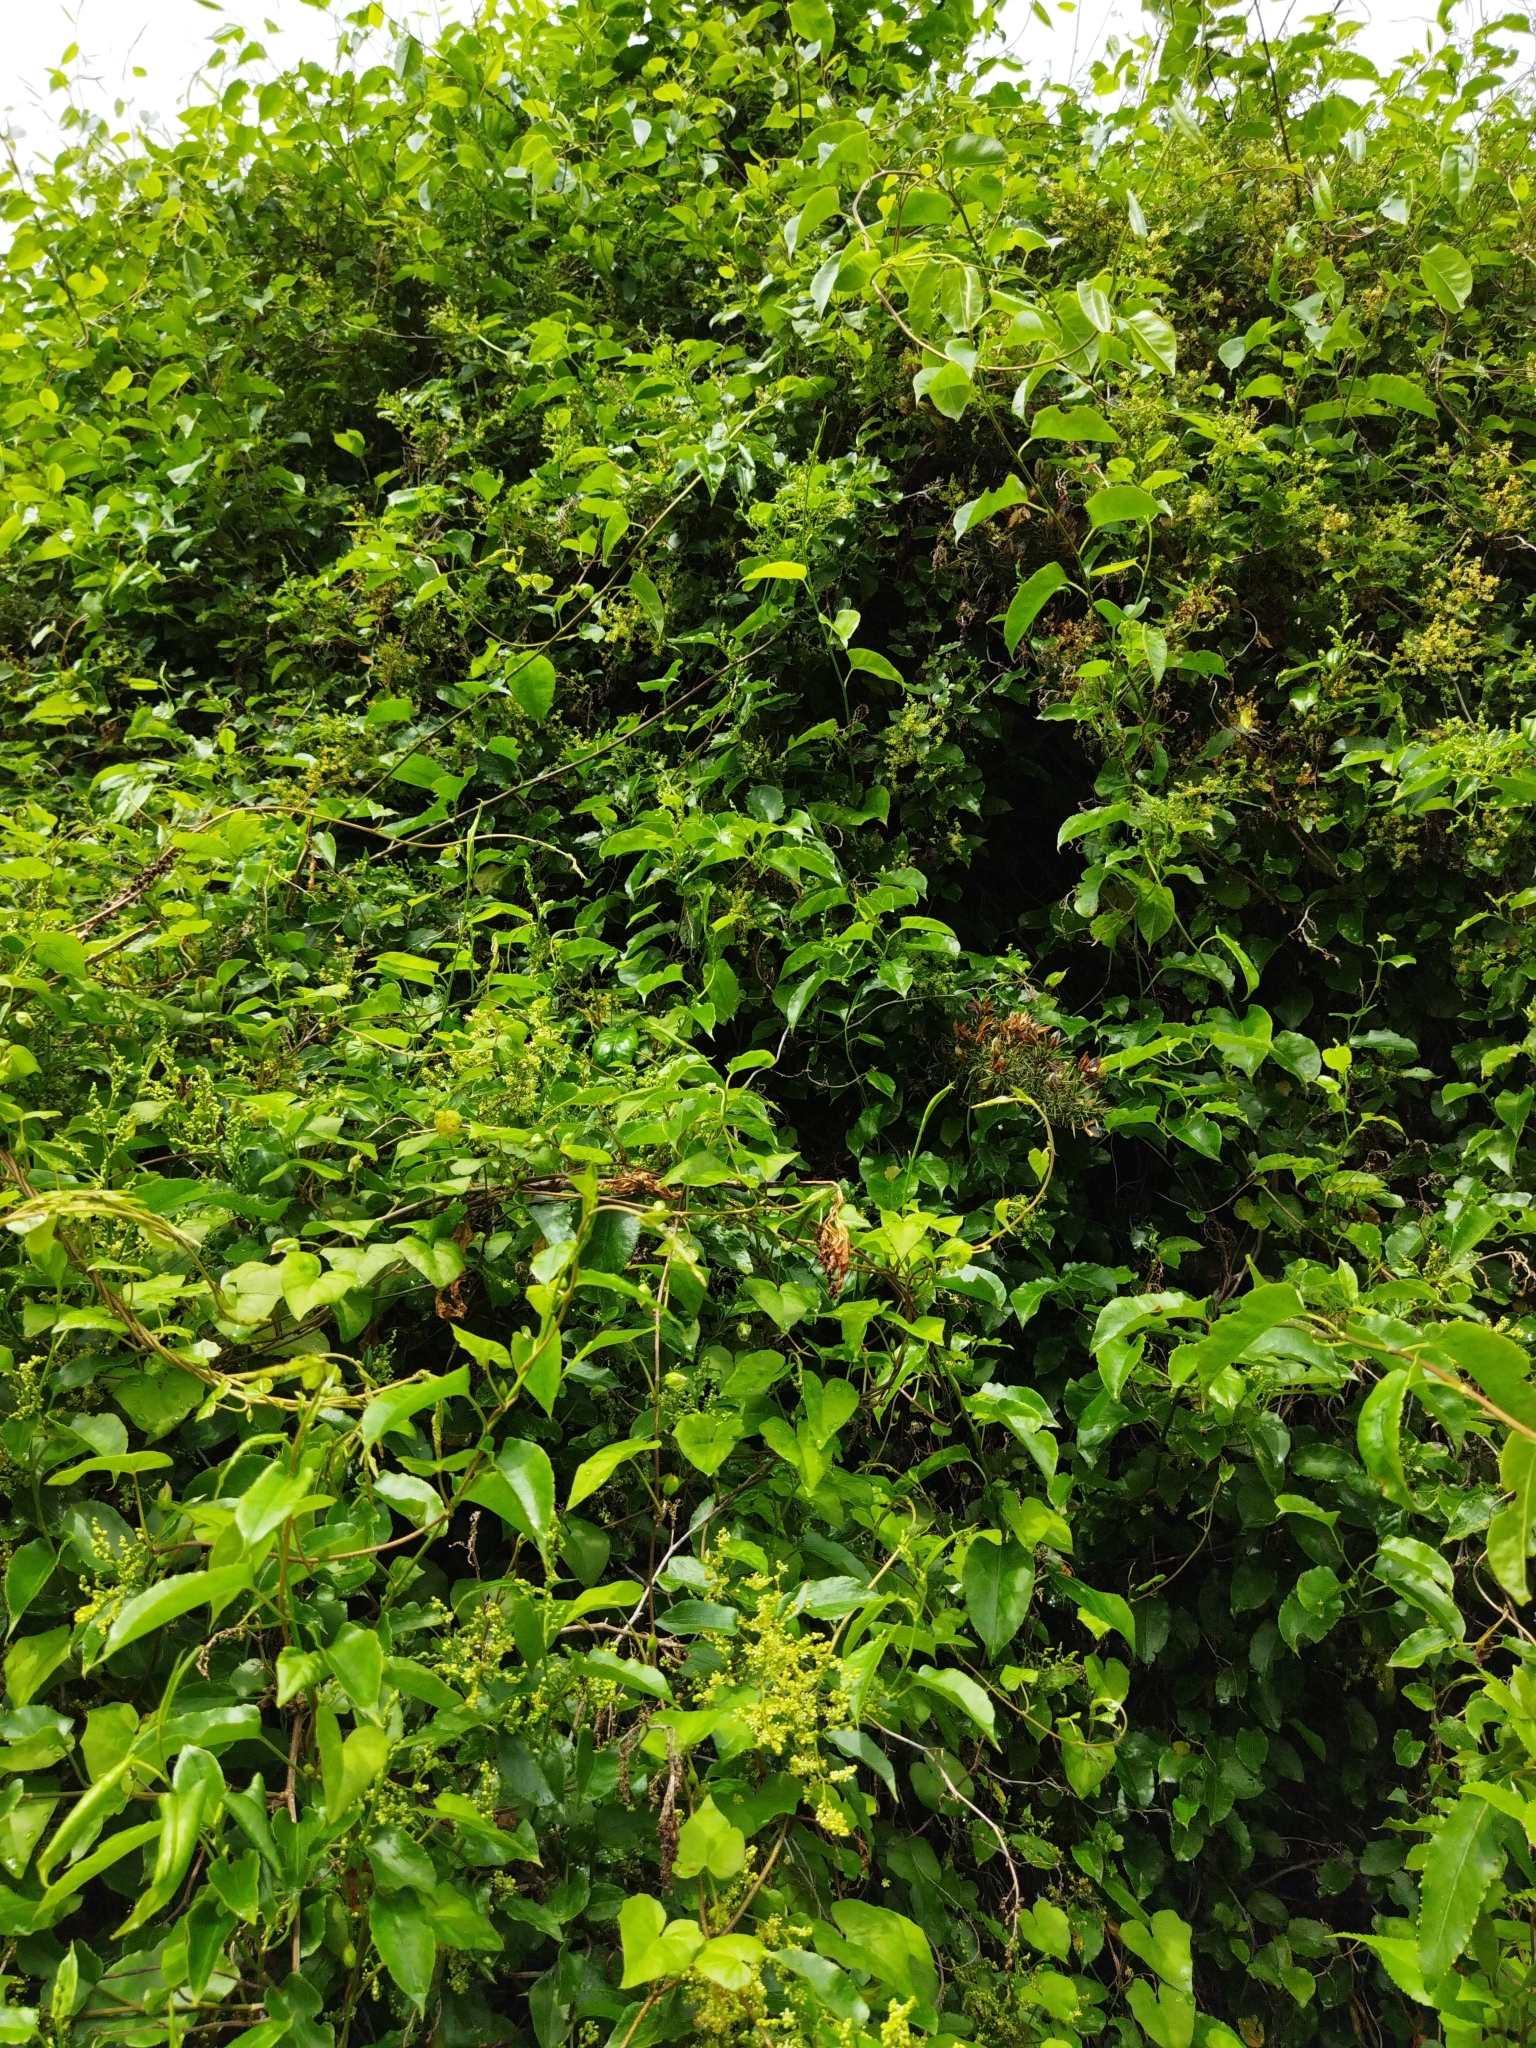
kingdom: Plantae
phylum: Tracheophyta
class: Magnoliopsida
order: Caryophyllales
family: Polygonaceae
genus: Muehlenbeckia
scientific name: Muehlenbeckia australis
